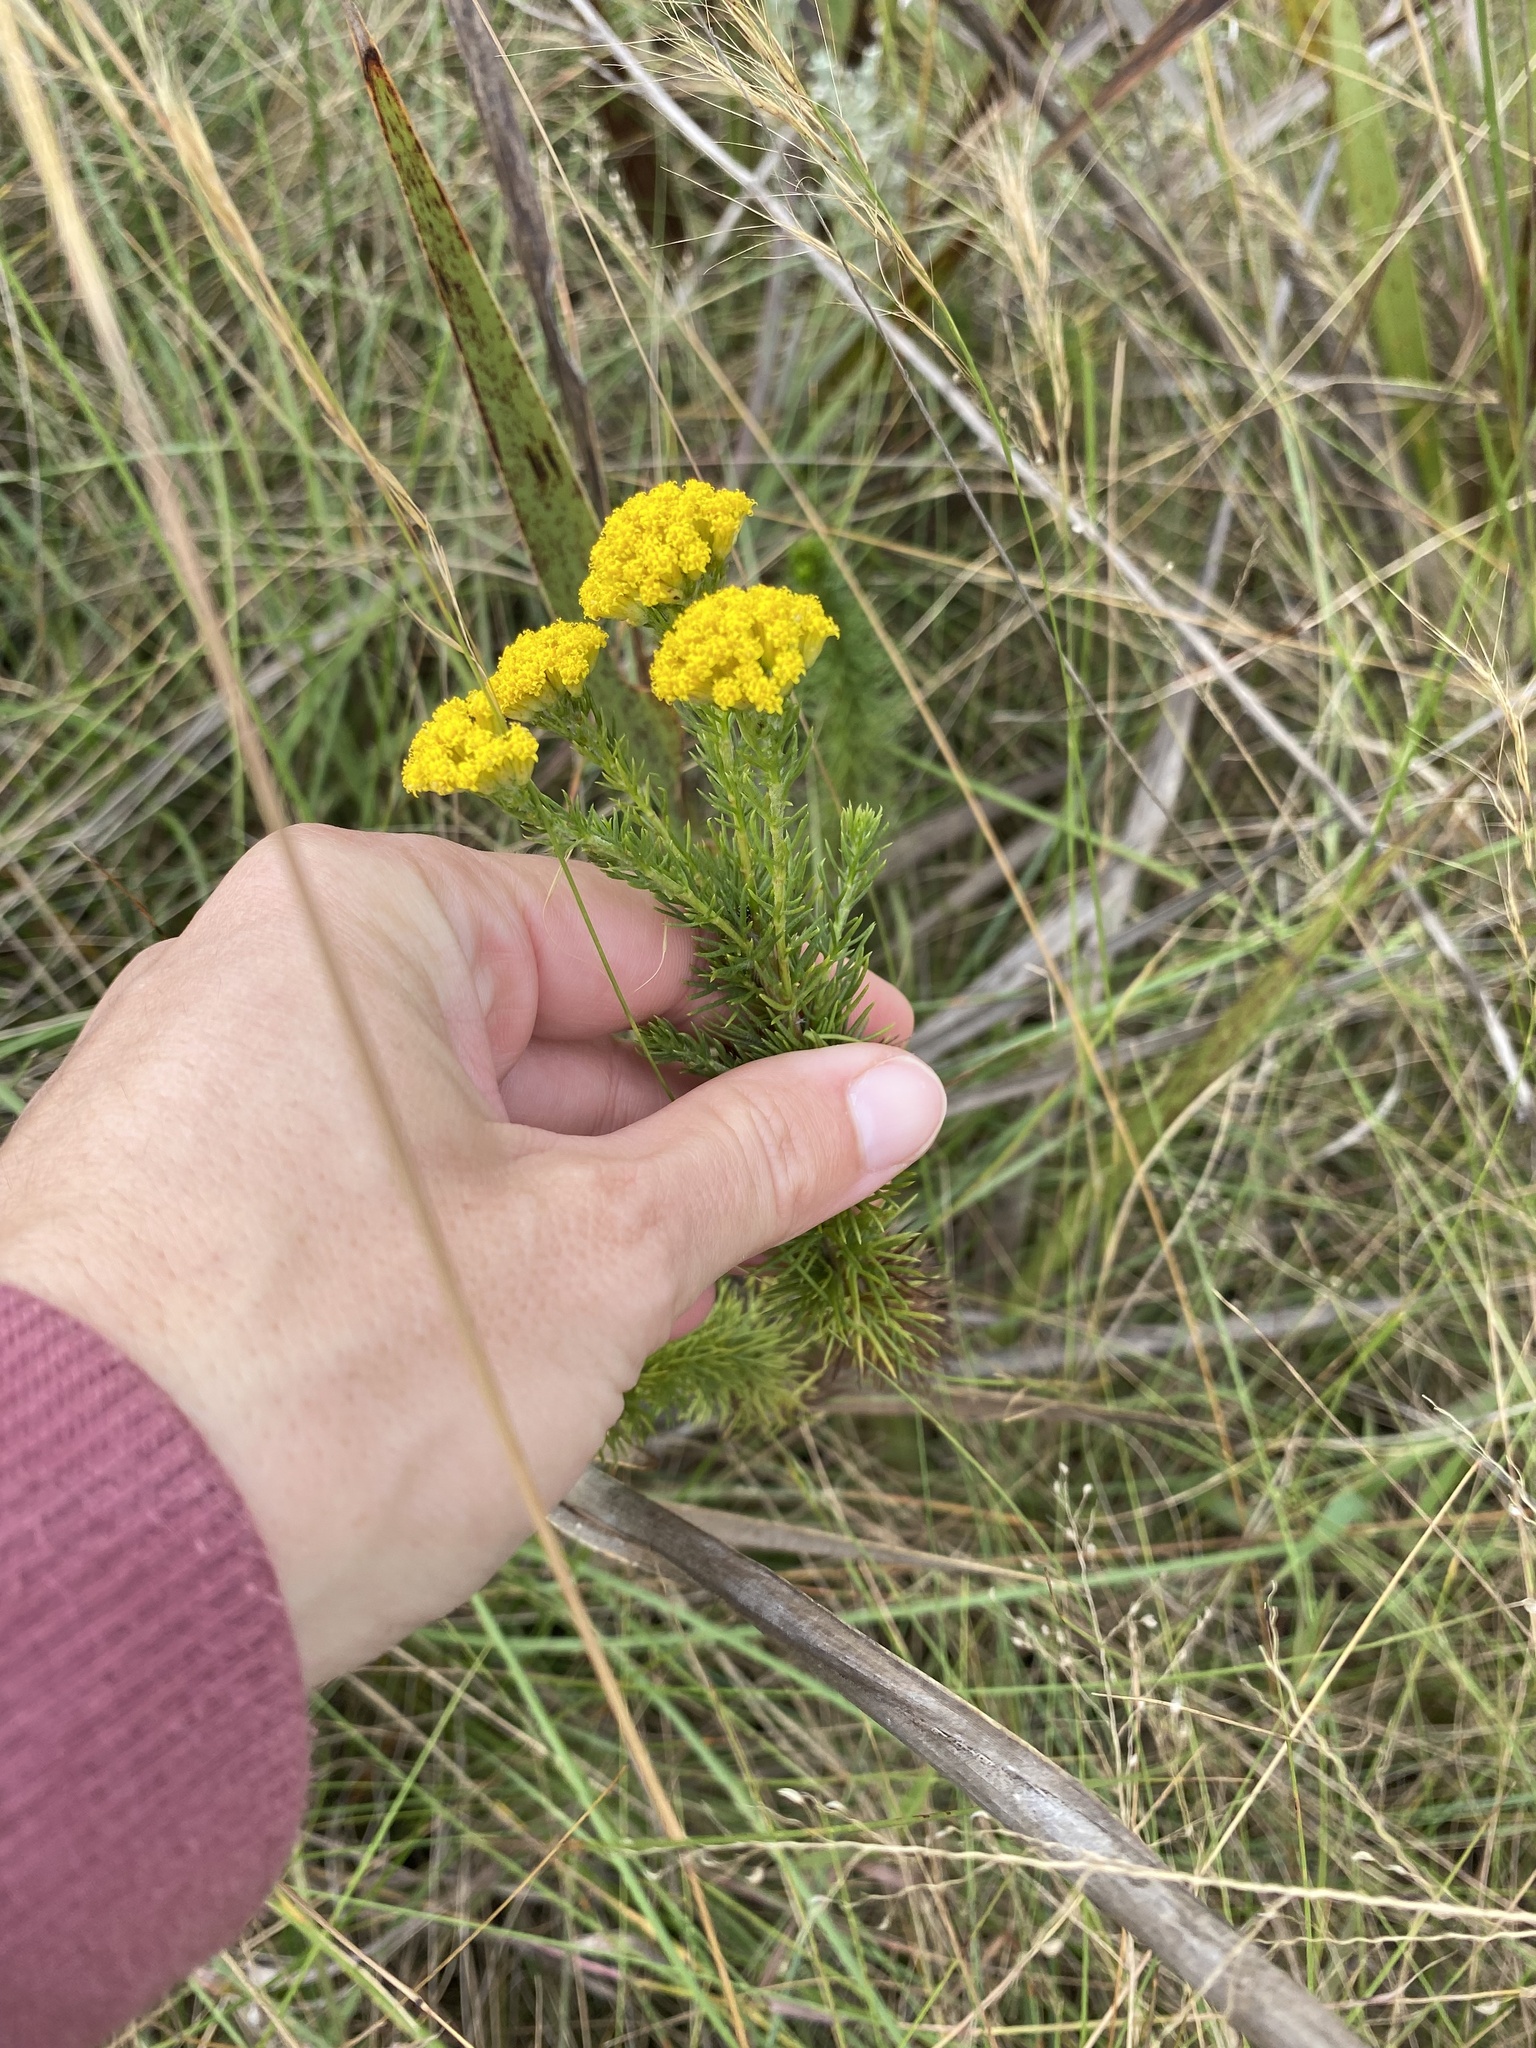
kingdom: Plantae
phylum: Tracheophyta
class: Magnoliopsida
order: Asterales
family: Asteraceae
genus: Phymaspermum
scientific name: Phymaspermum acerosum
